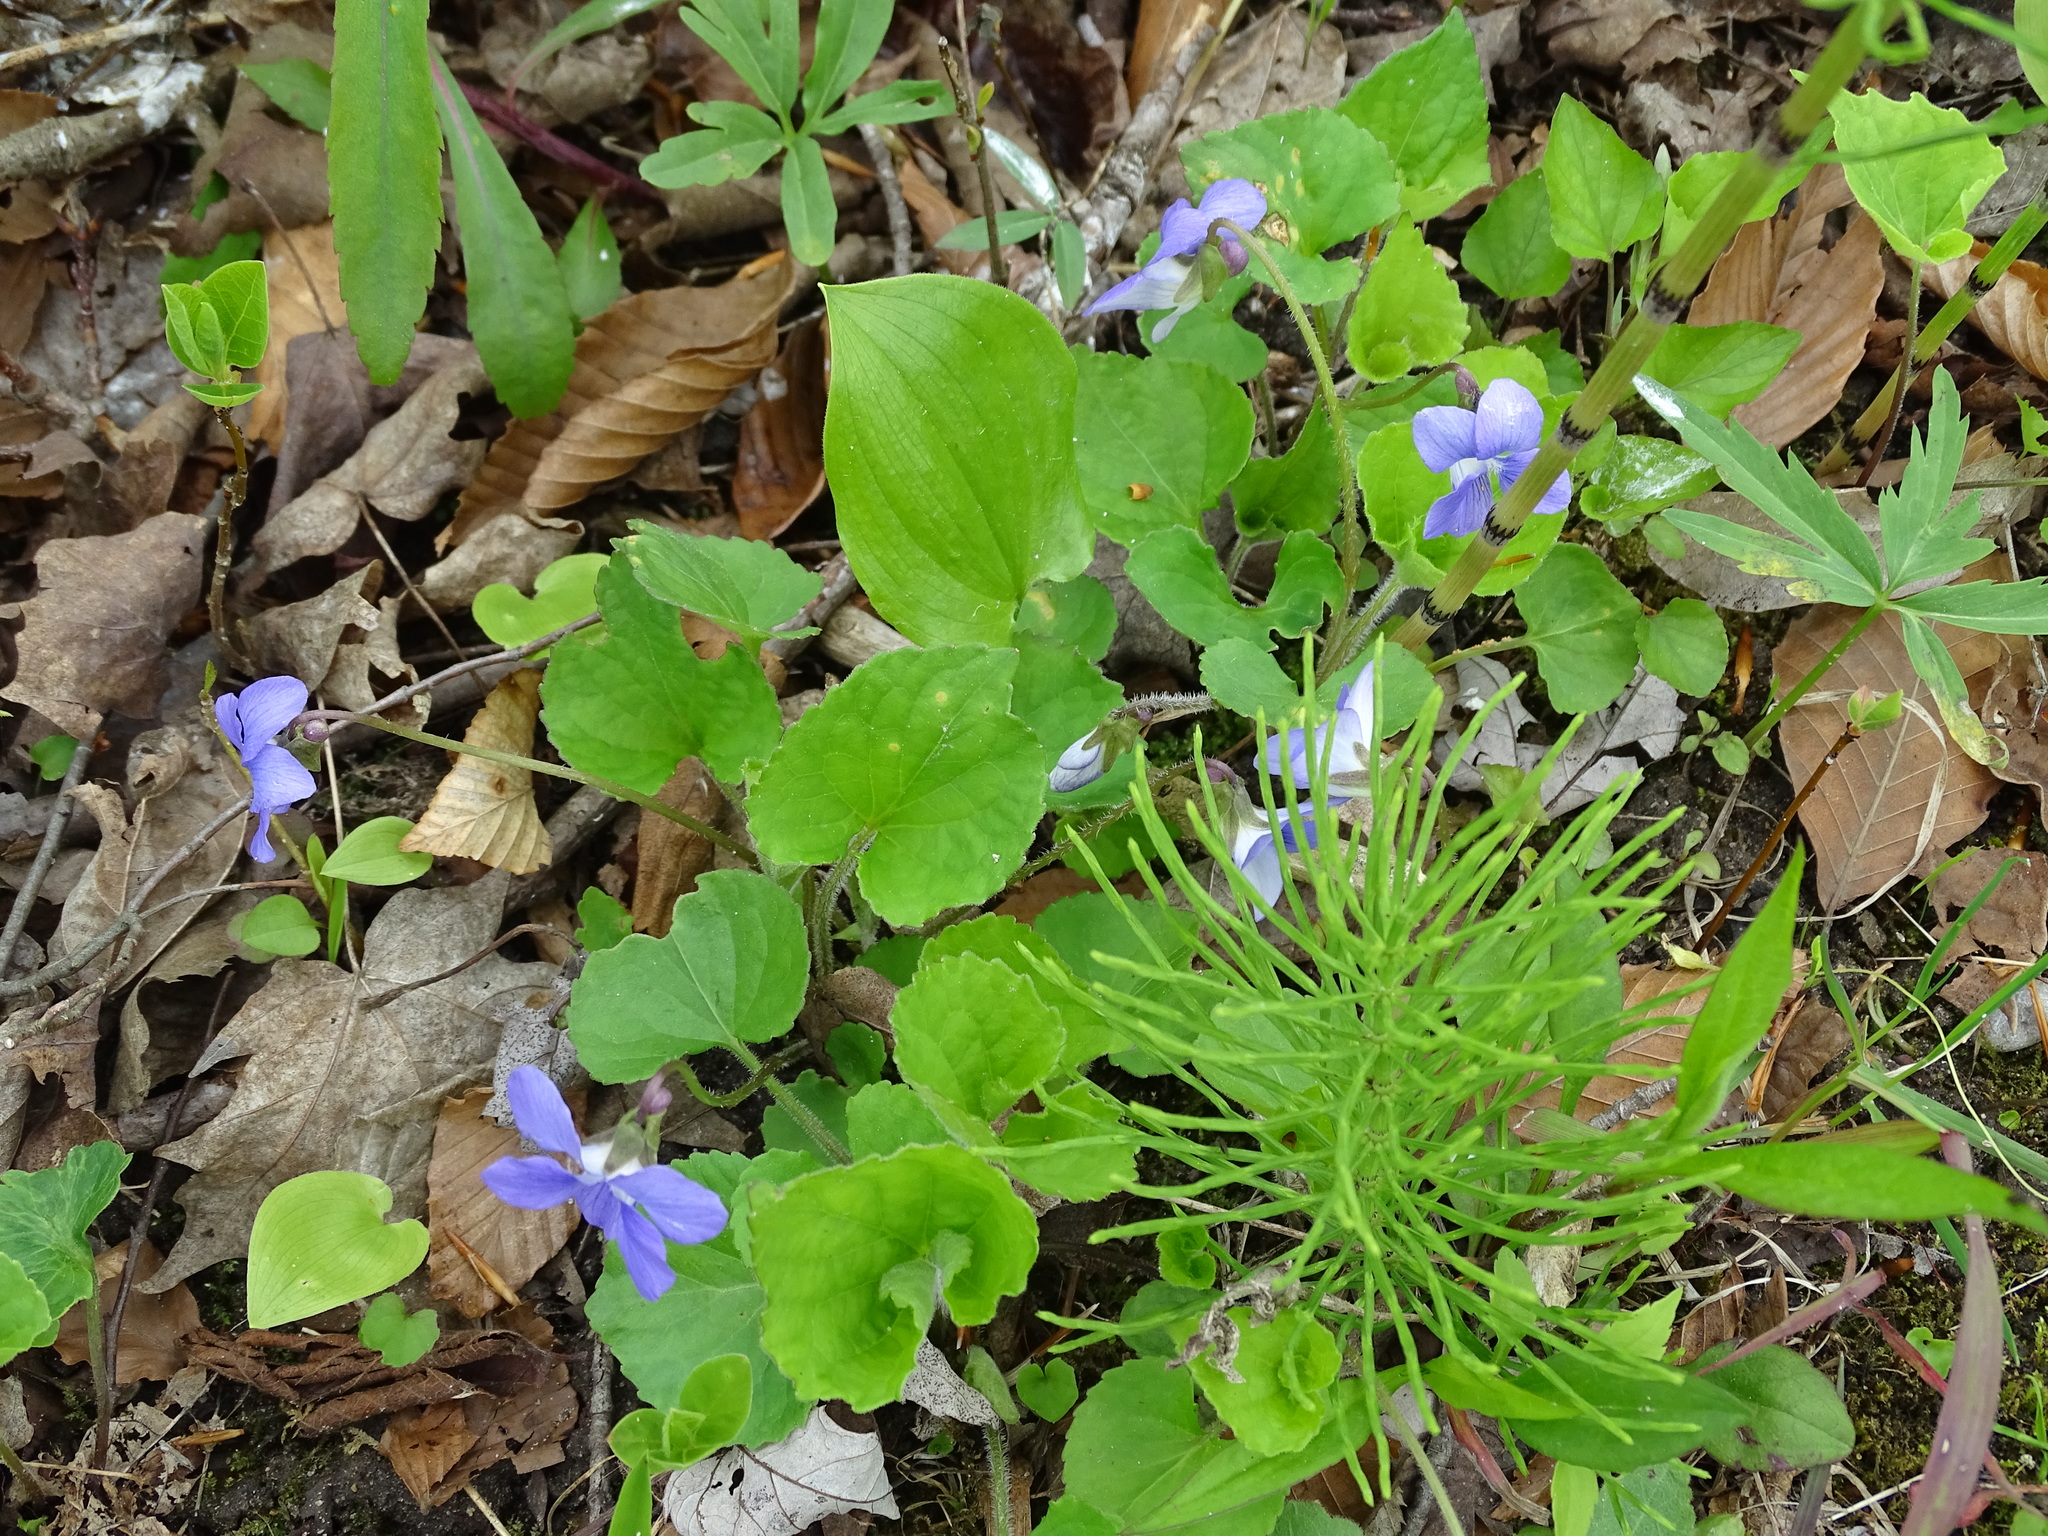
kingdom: Plantae
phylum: Tracheophyta
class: Magnoliopsida
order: Malpighiales
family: Violaceae
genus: Viola
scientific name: Viola sororia
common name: Dooryard violet
